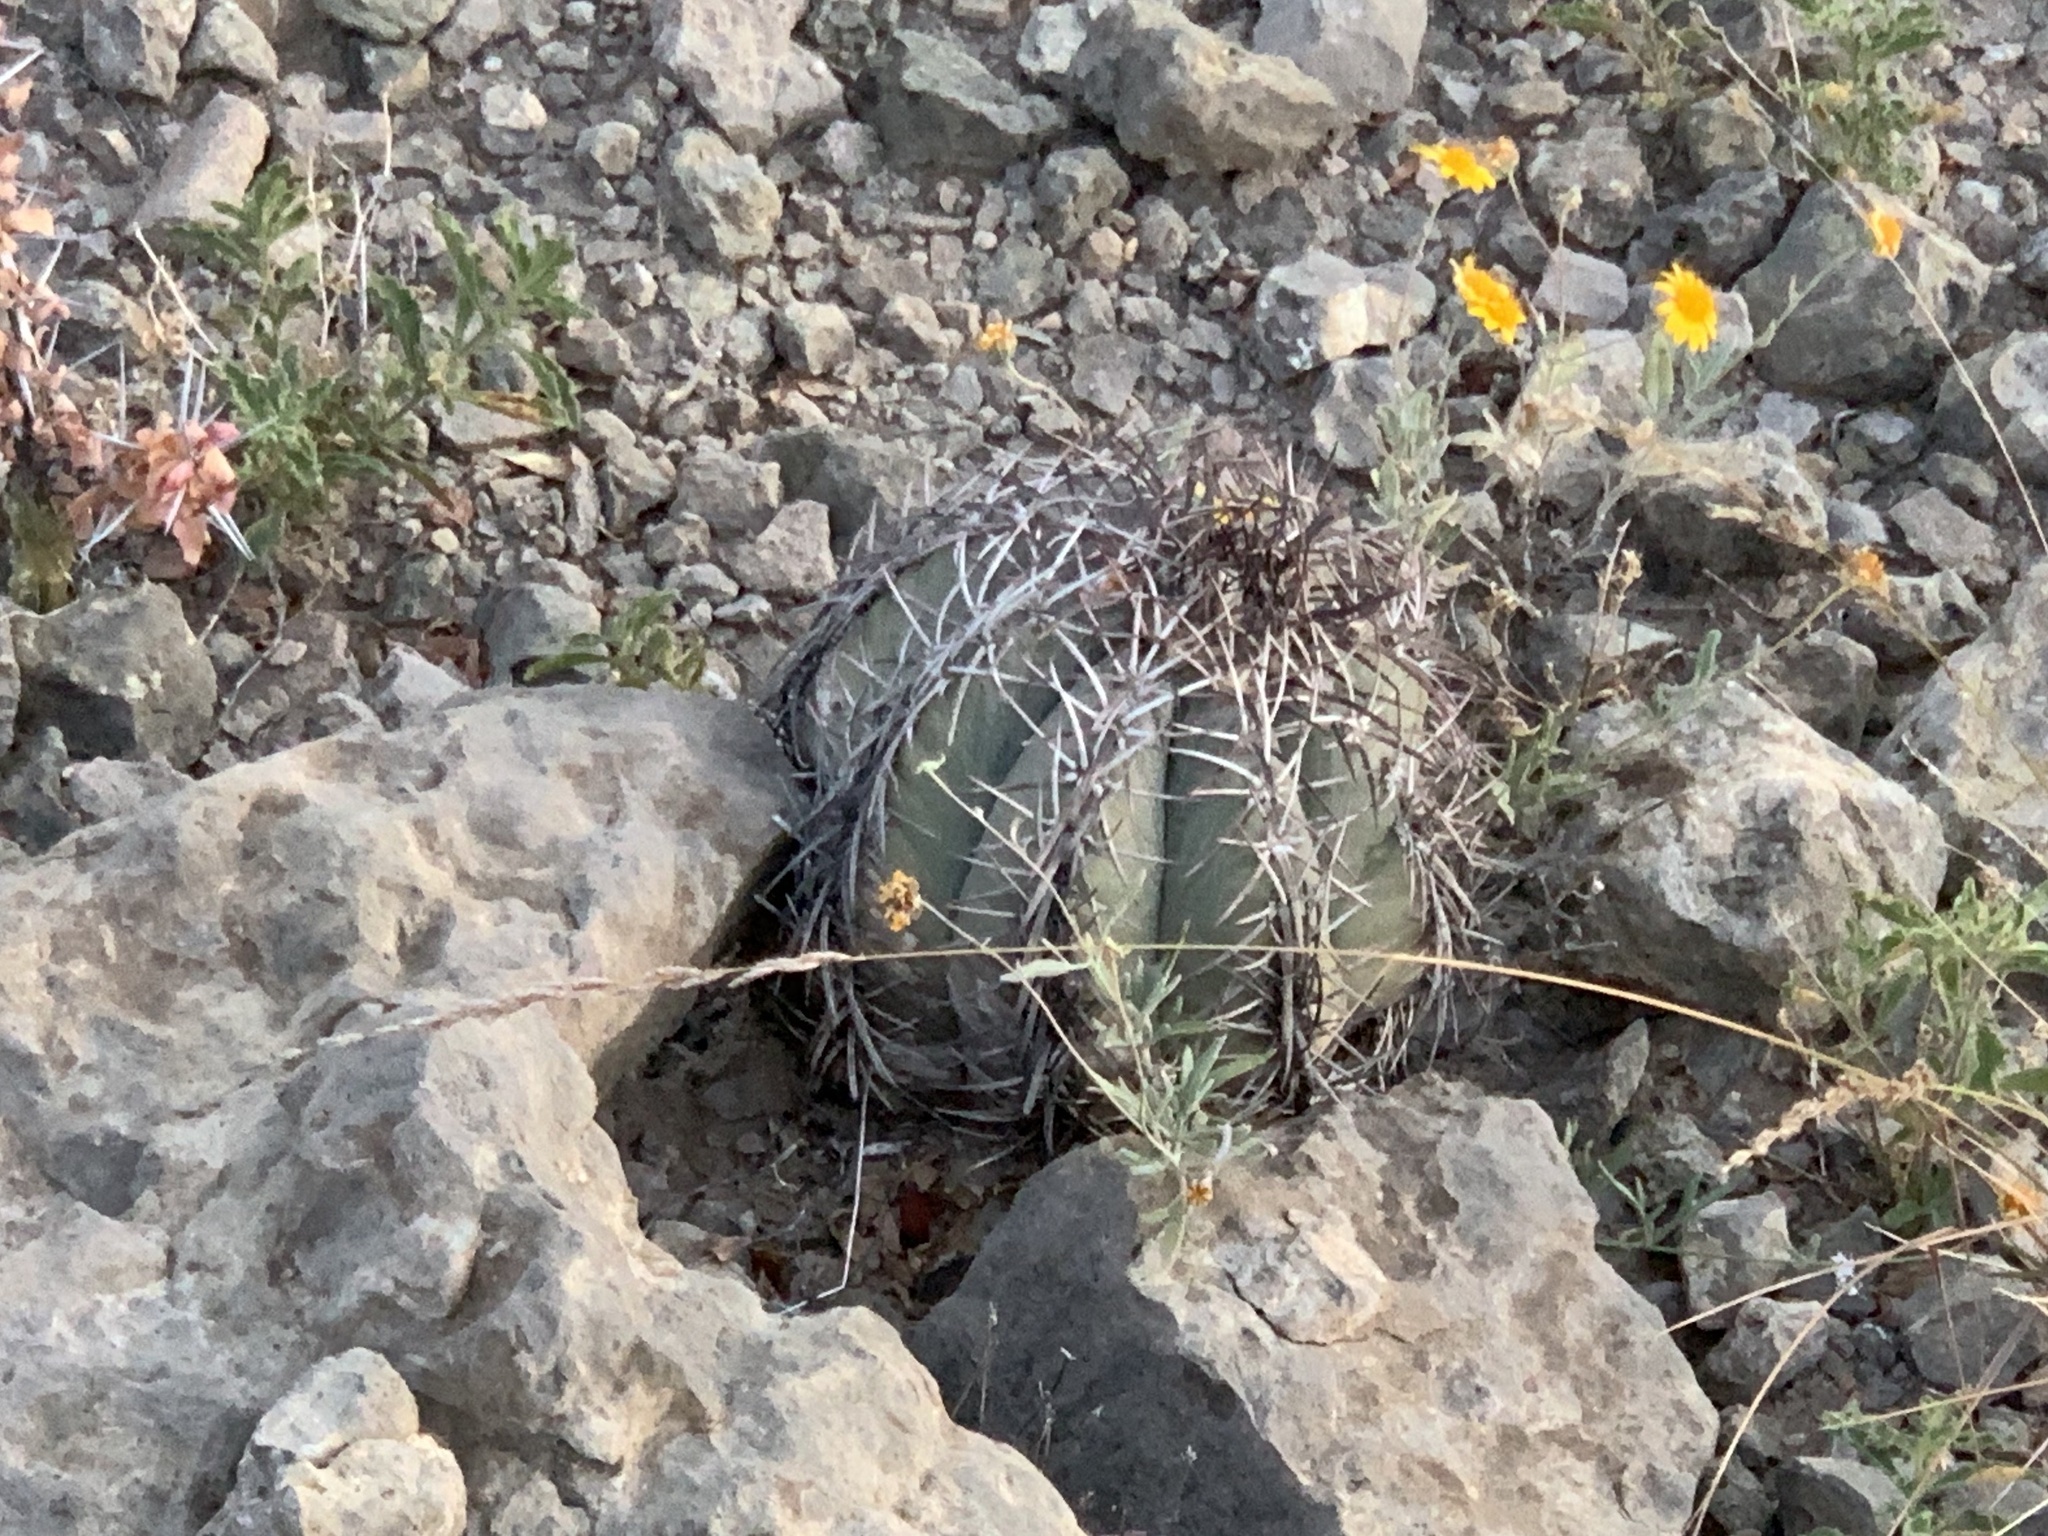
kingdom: Plantae
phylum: Tracheophyta
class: Magnoliopsida
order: Caryophyllales
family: Cactaceae
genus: Echinocactus
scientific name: Echinocactus horizonthalonius
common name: Devilshead
